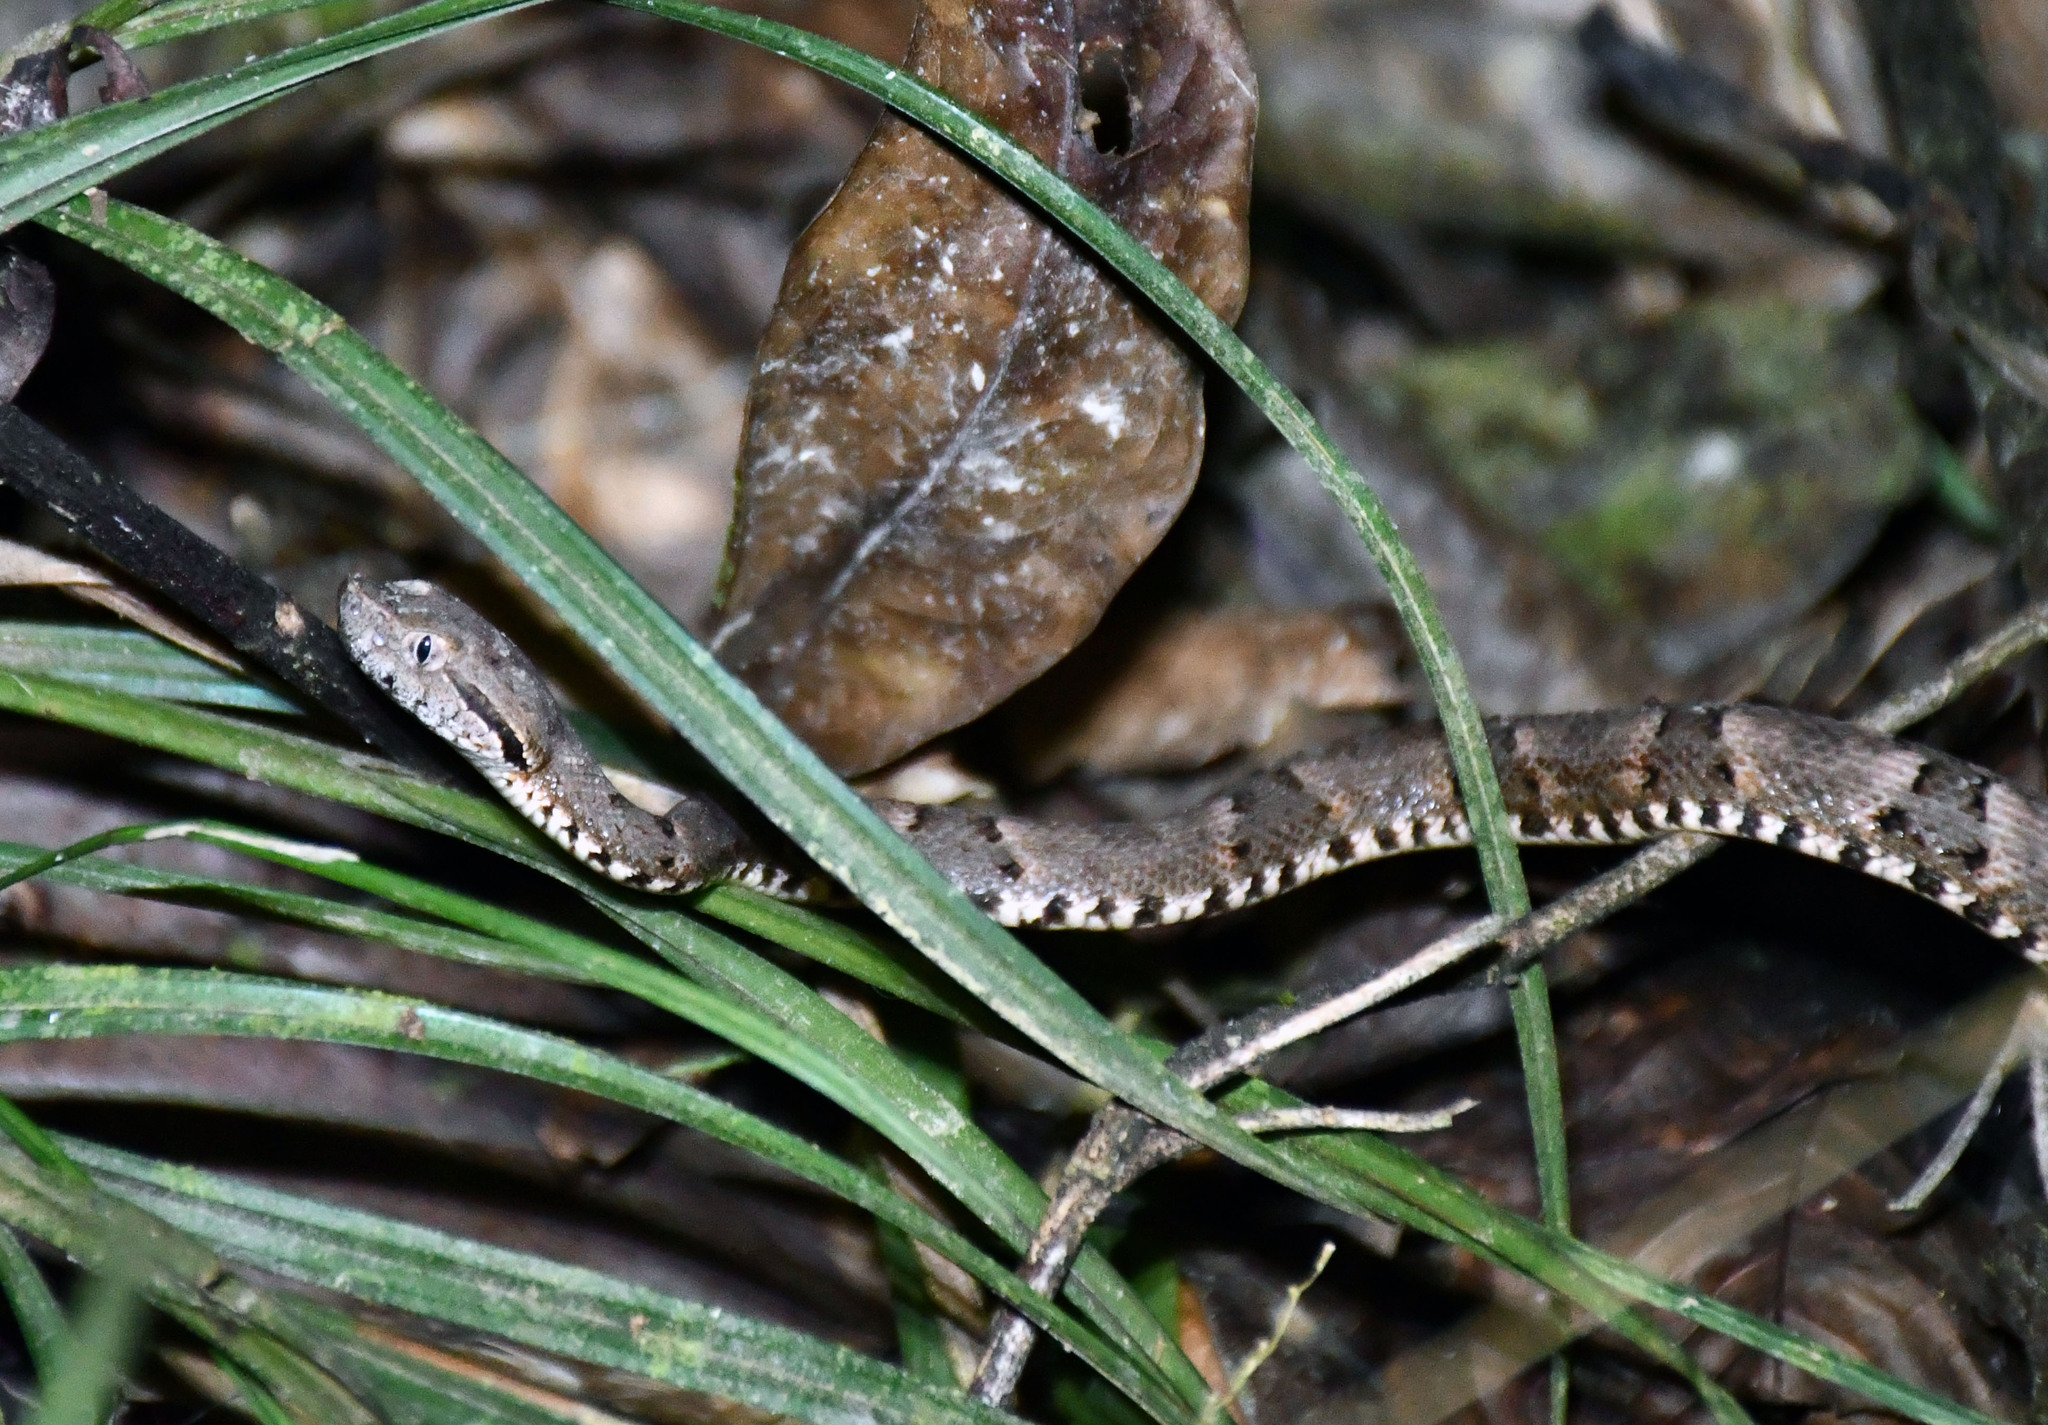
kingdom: Animalia
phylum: Chordata
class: Squamata
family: Viperidae
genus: Bothrops
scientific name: Bothrops atrox
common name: Common lancehead
